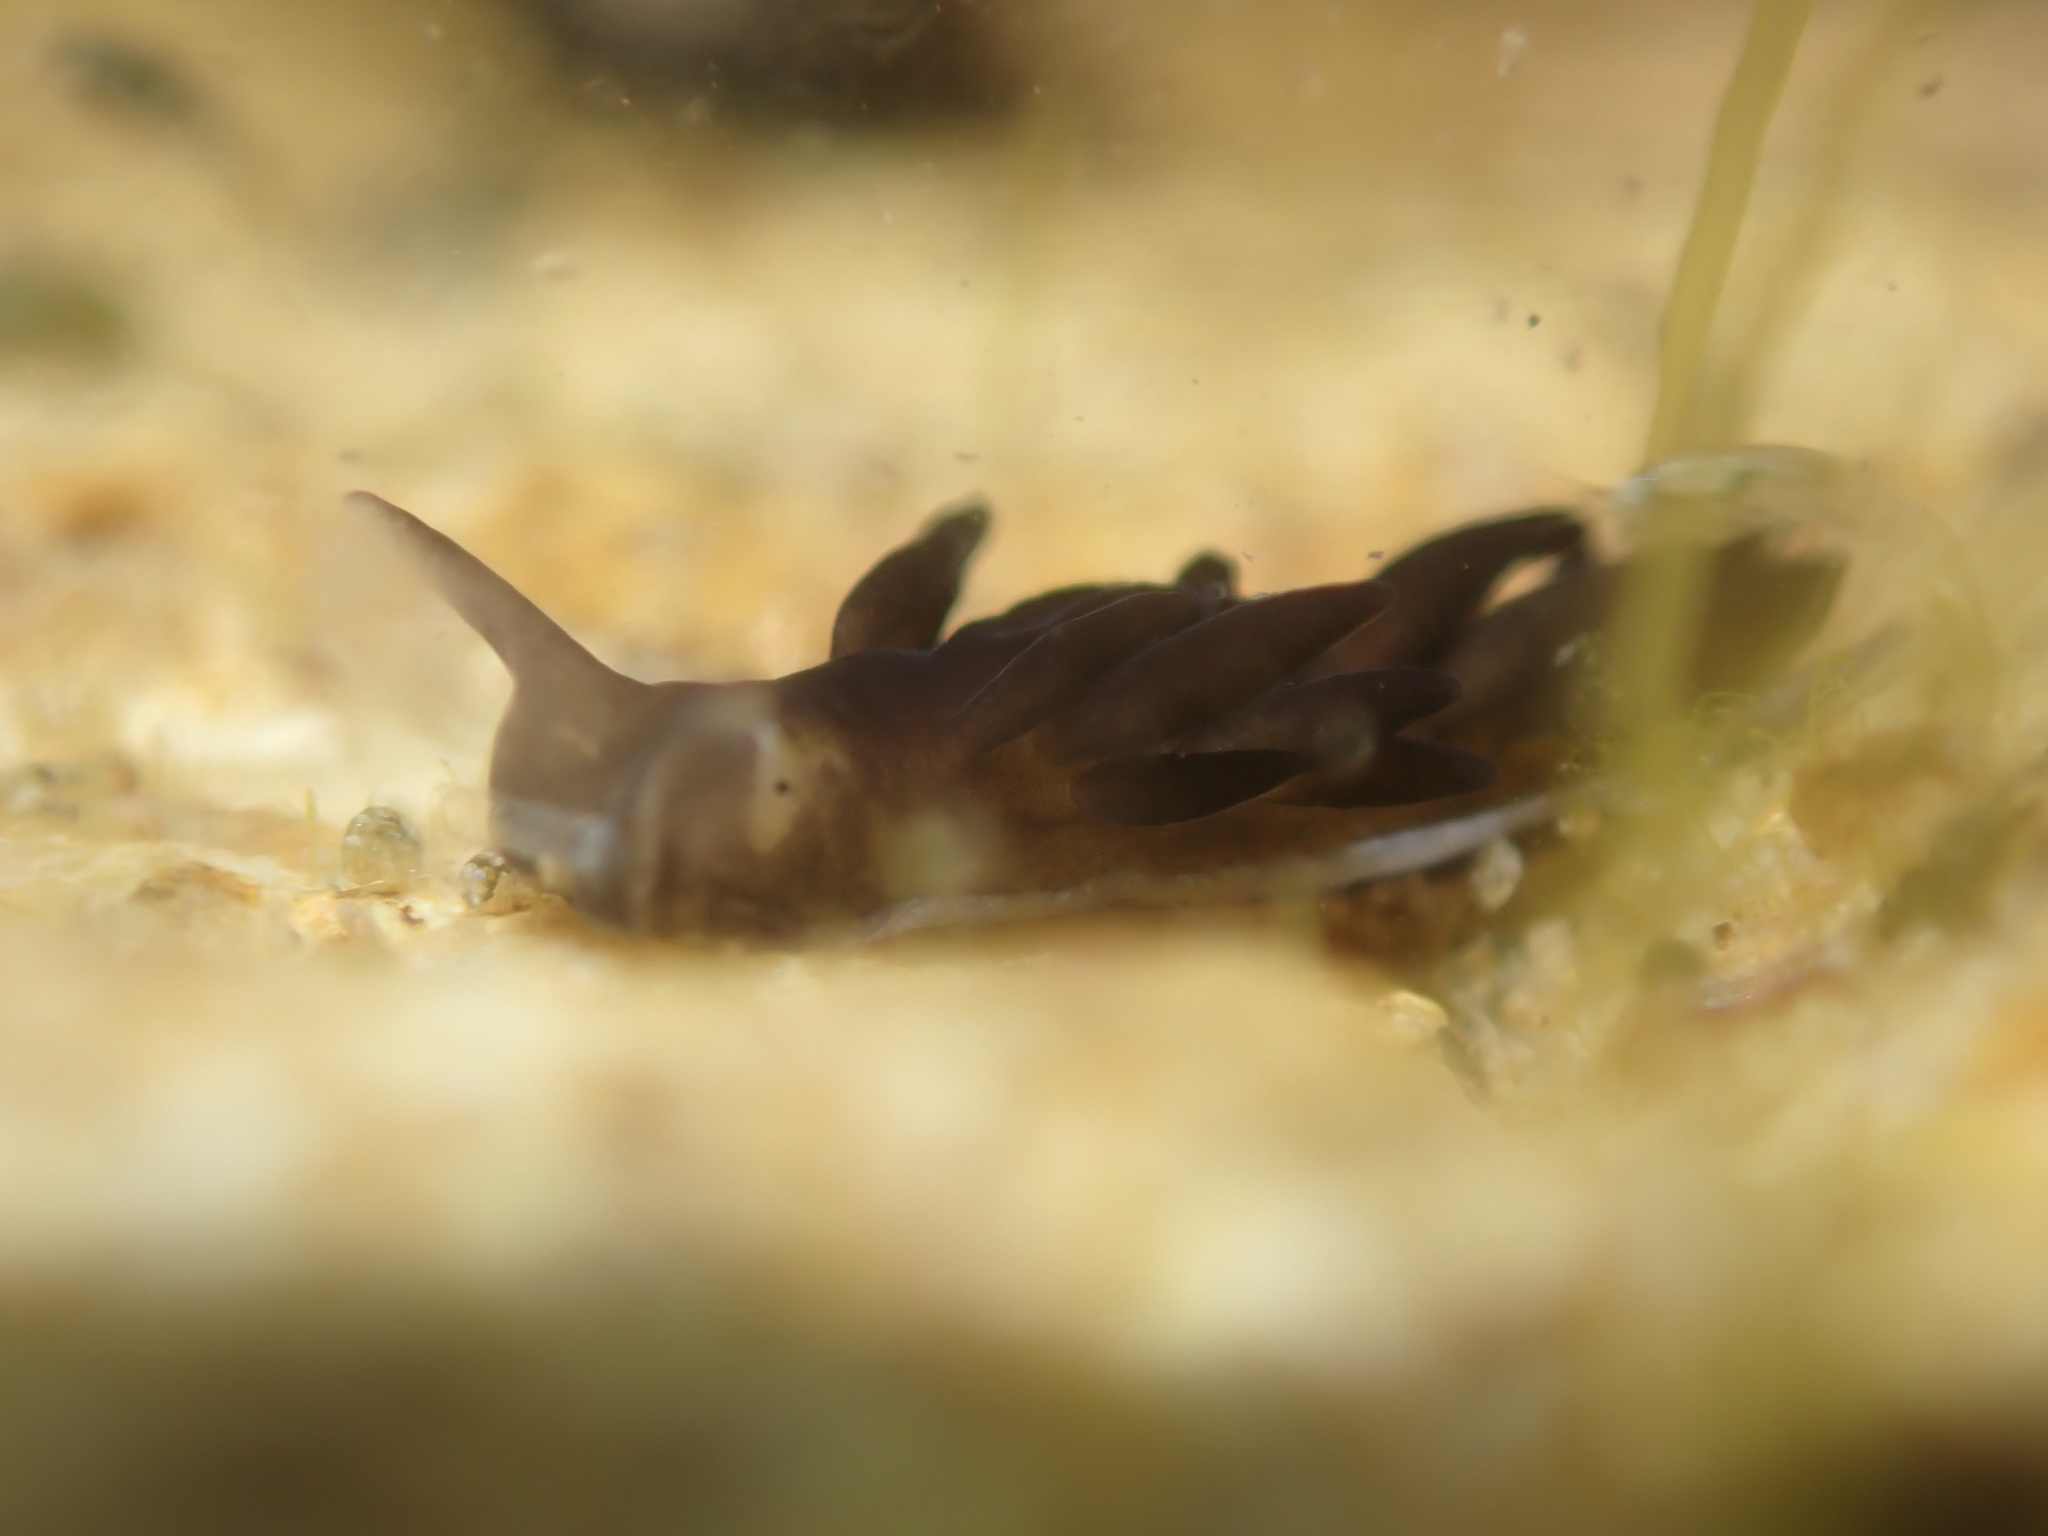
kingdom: Animalia
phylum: Mollusca
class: Gastropoda
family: Limapontiidae
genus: Ercolania
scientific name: Ercolania felina
